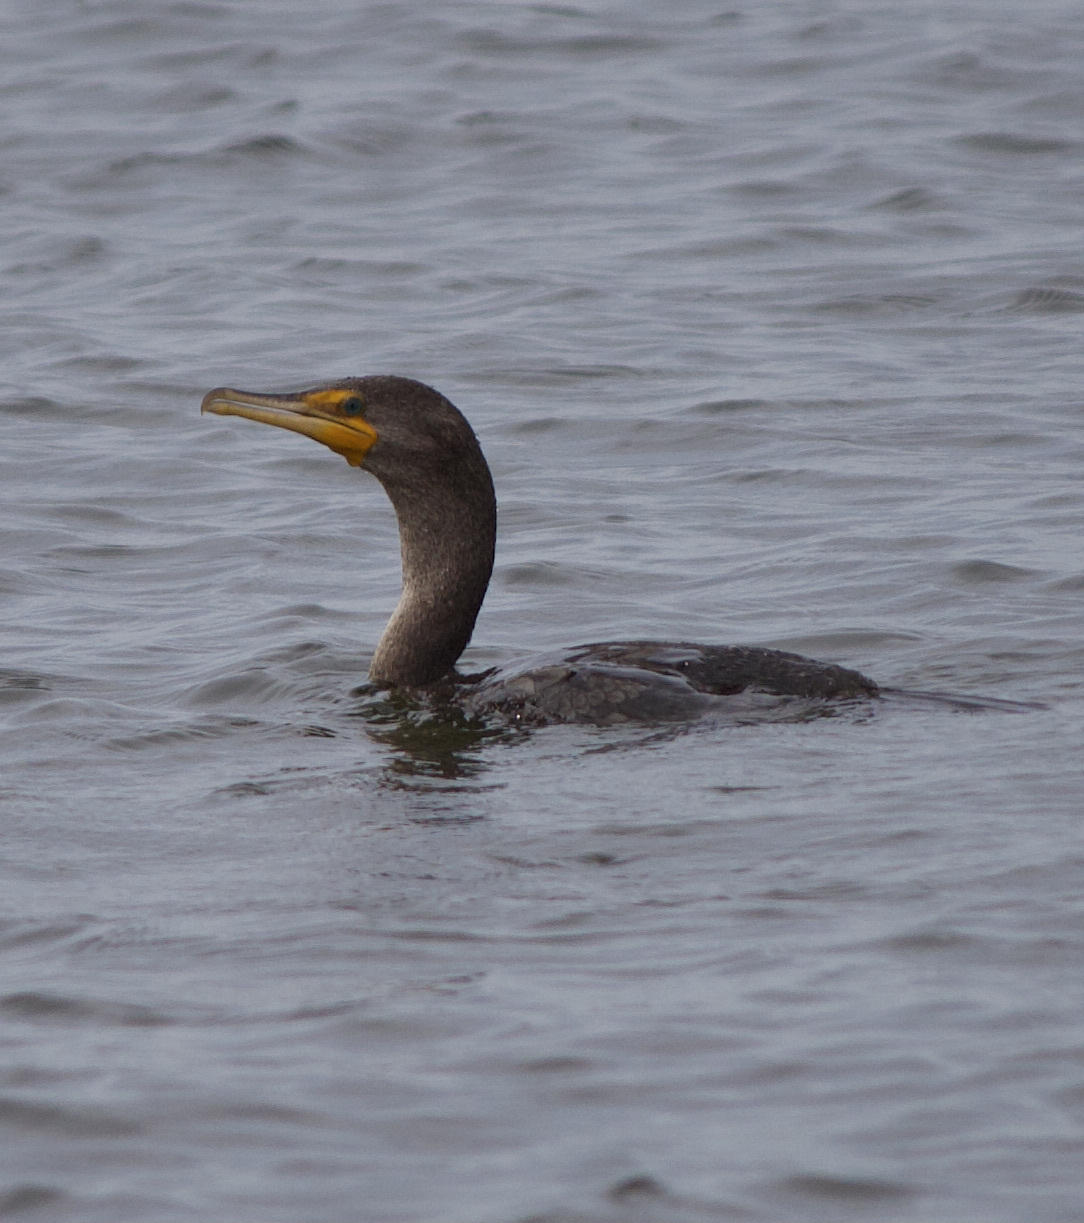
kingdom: Animalia
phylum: Chordata
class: Aves
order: Suliformes
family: Phalacrocoracidae
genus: Phalacrocorax
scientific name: Phalacrocorax auritus
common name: Double-crested cormorant
